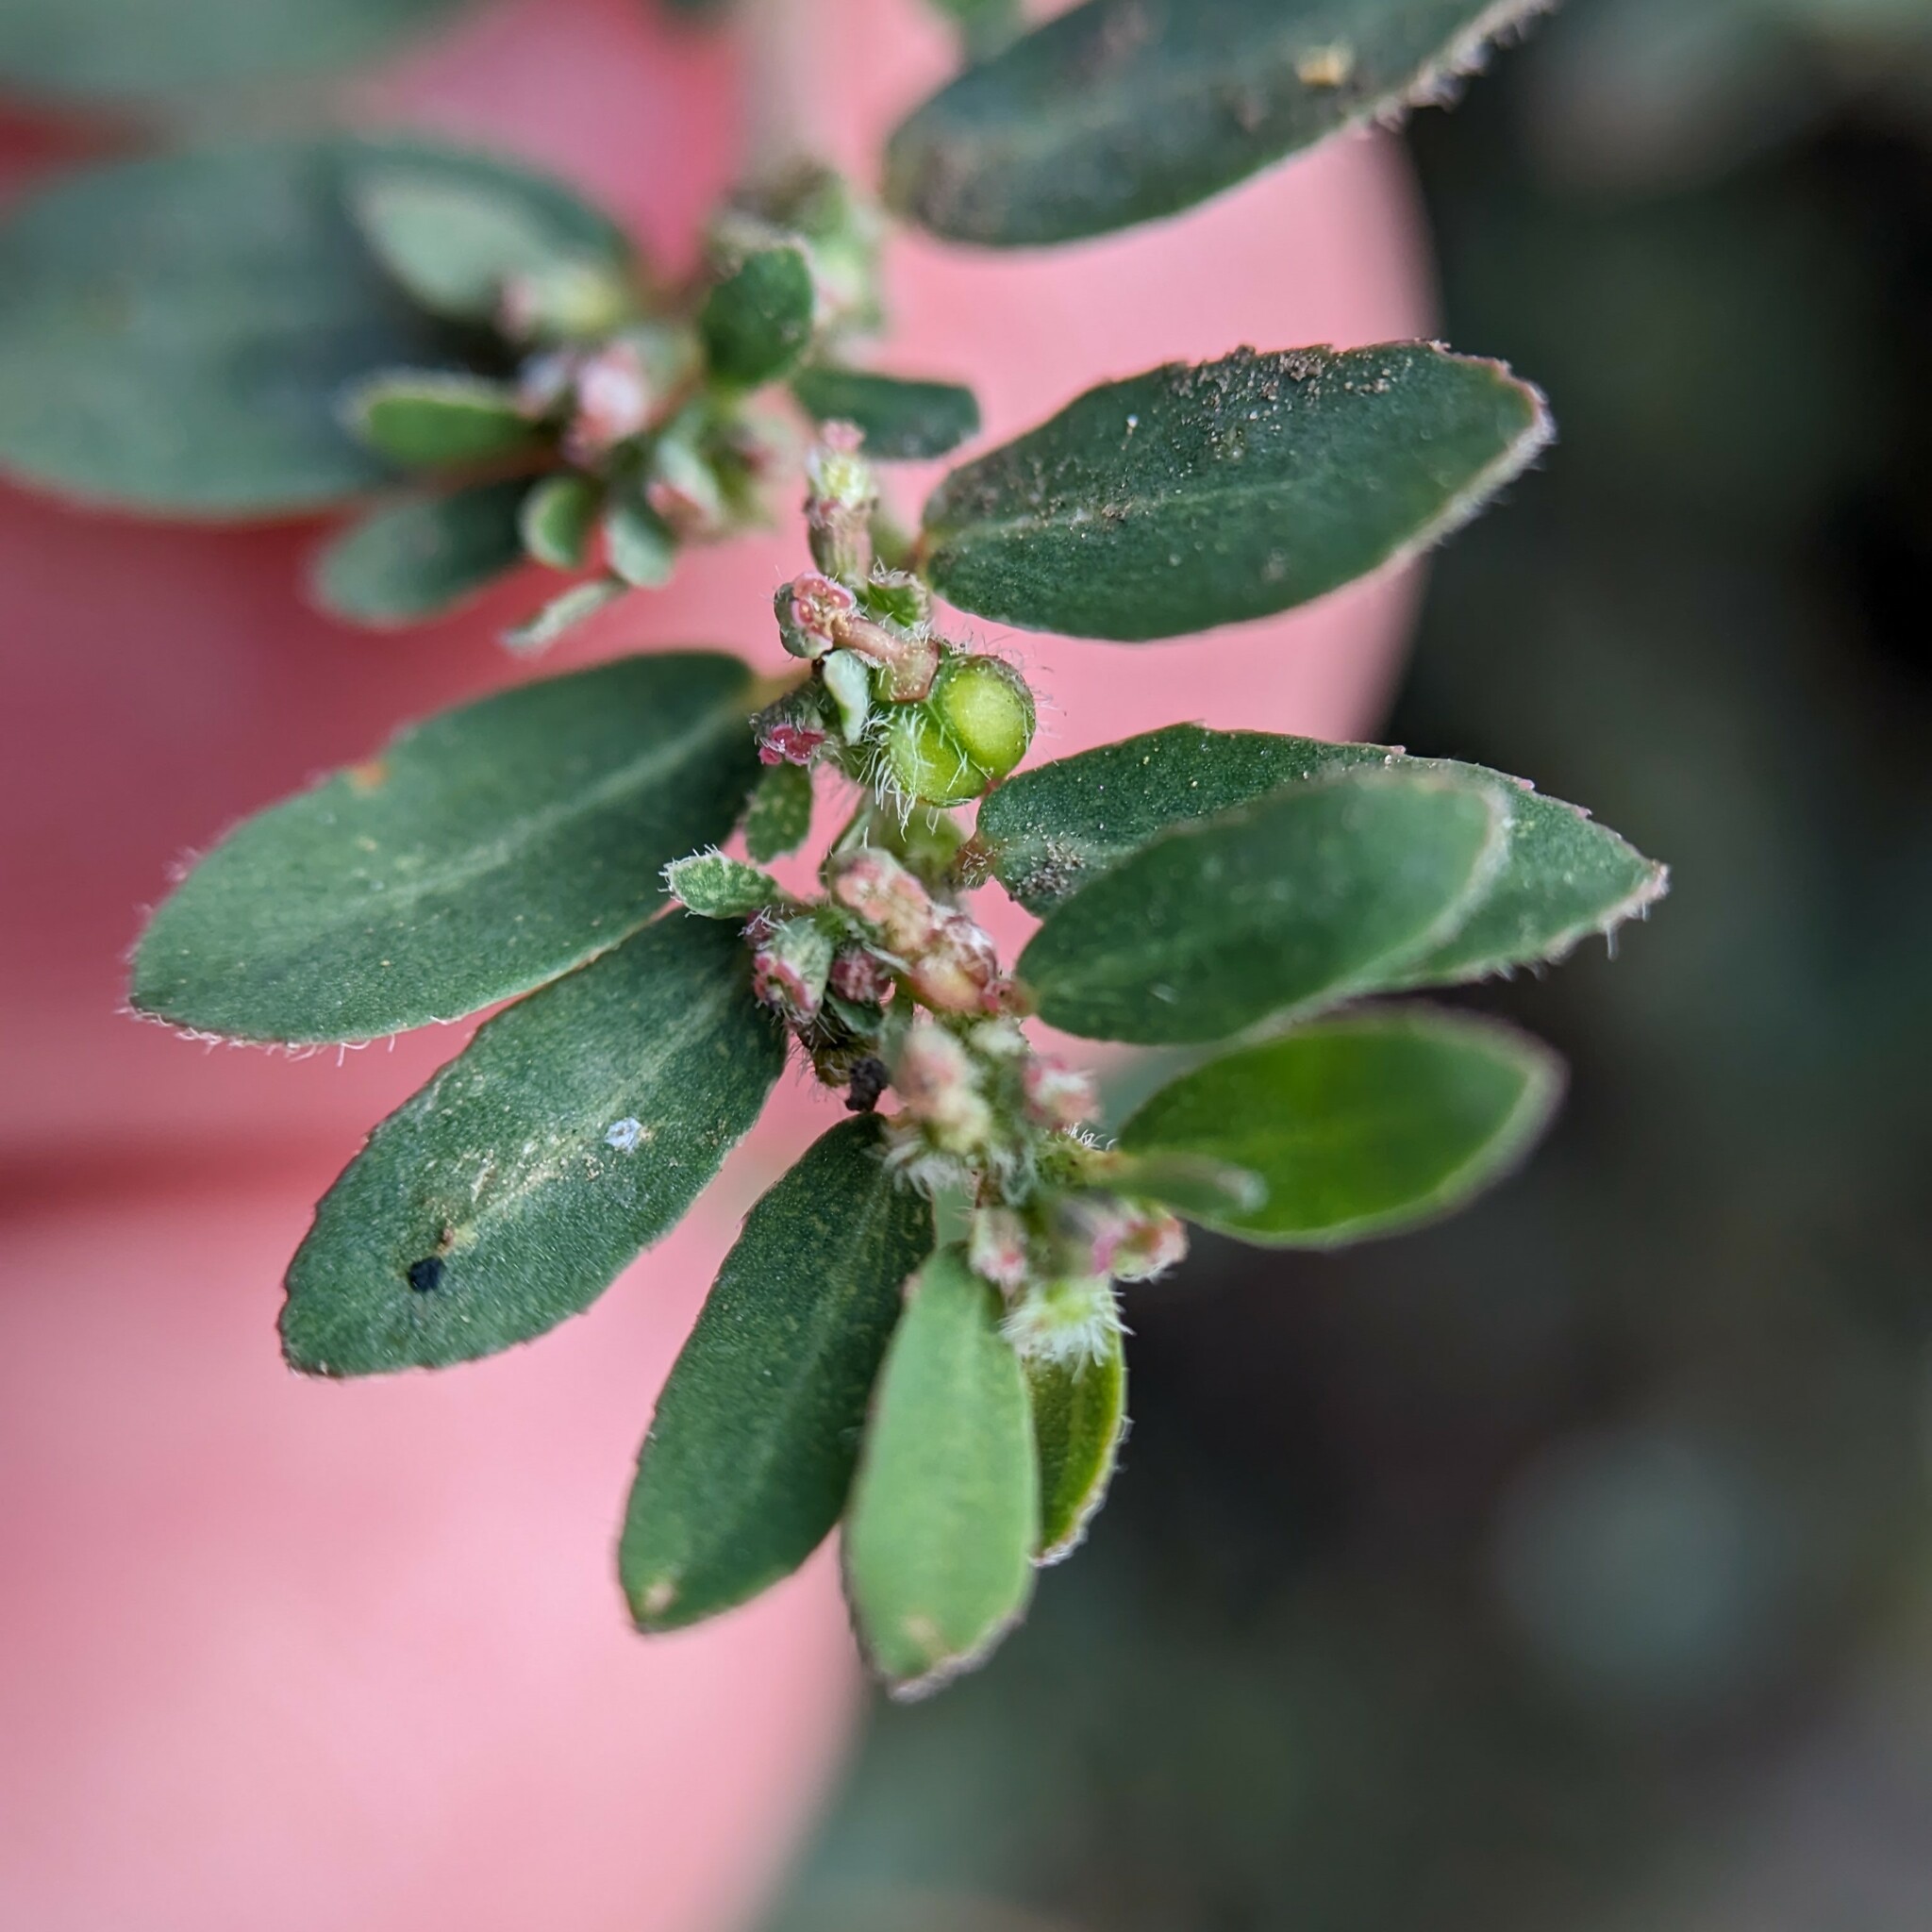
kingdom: Plantae
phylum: Tracheophyta
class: Magnoliopsida
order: Malpighiales
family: Euphorbiaceae
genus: Euphorbia
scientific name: Euphorbia prostrata
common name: Prostrate sandmat
